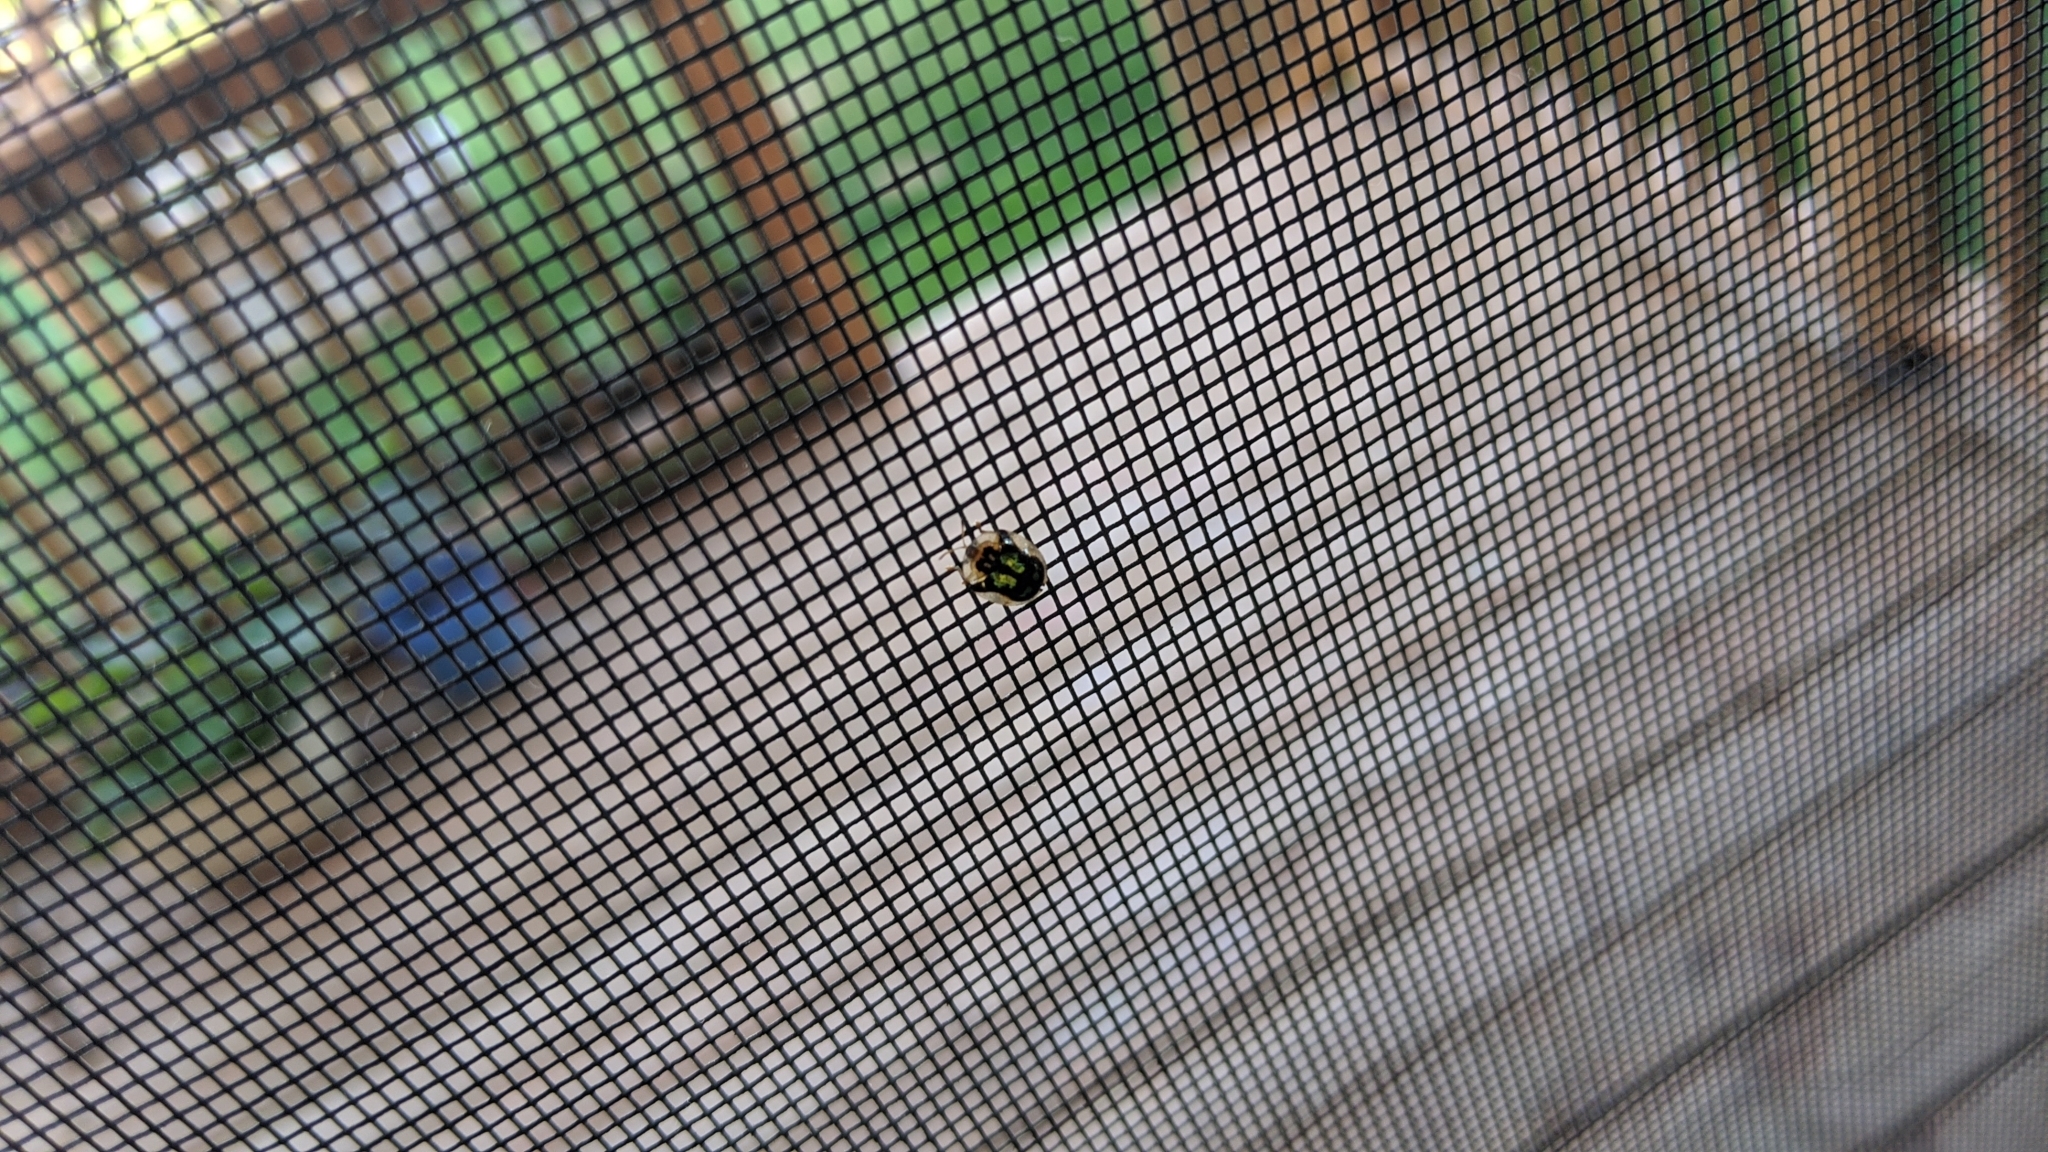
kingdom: Animalia
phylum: Arthropoda
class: Insecta
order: Coleoptera
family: Chrysomelidae
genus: Deloyala
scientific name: Deloyala guttata
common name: Mottled tortoise beetle
